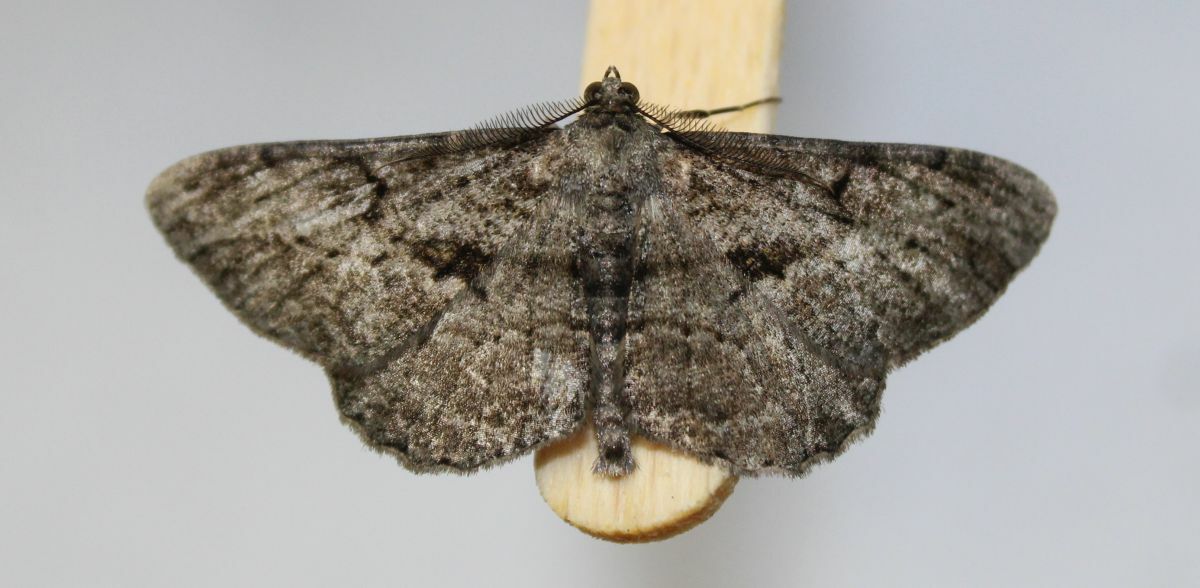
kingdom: Animalia
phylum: Arthropoda
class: Insecta
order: Lepidoptera
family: Geometridae
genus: Peribatodes
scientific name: Peribatodes rhomboidaria
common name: Willow beauty
